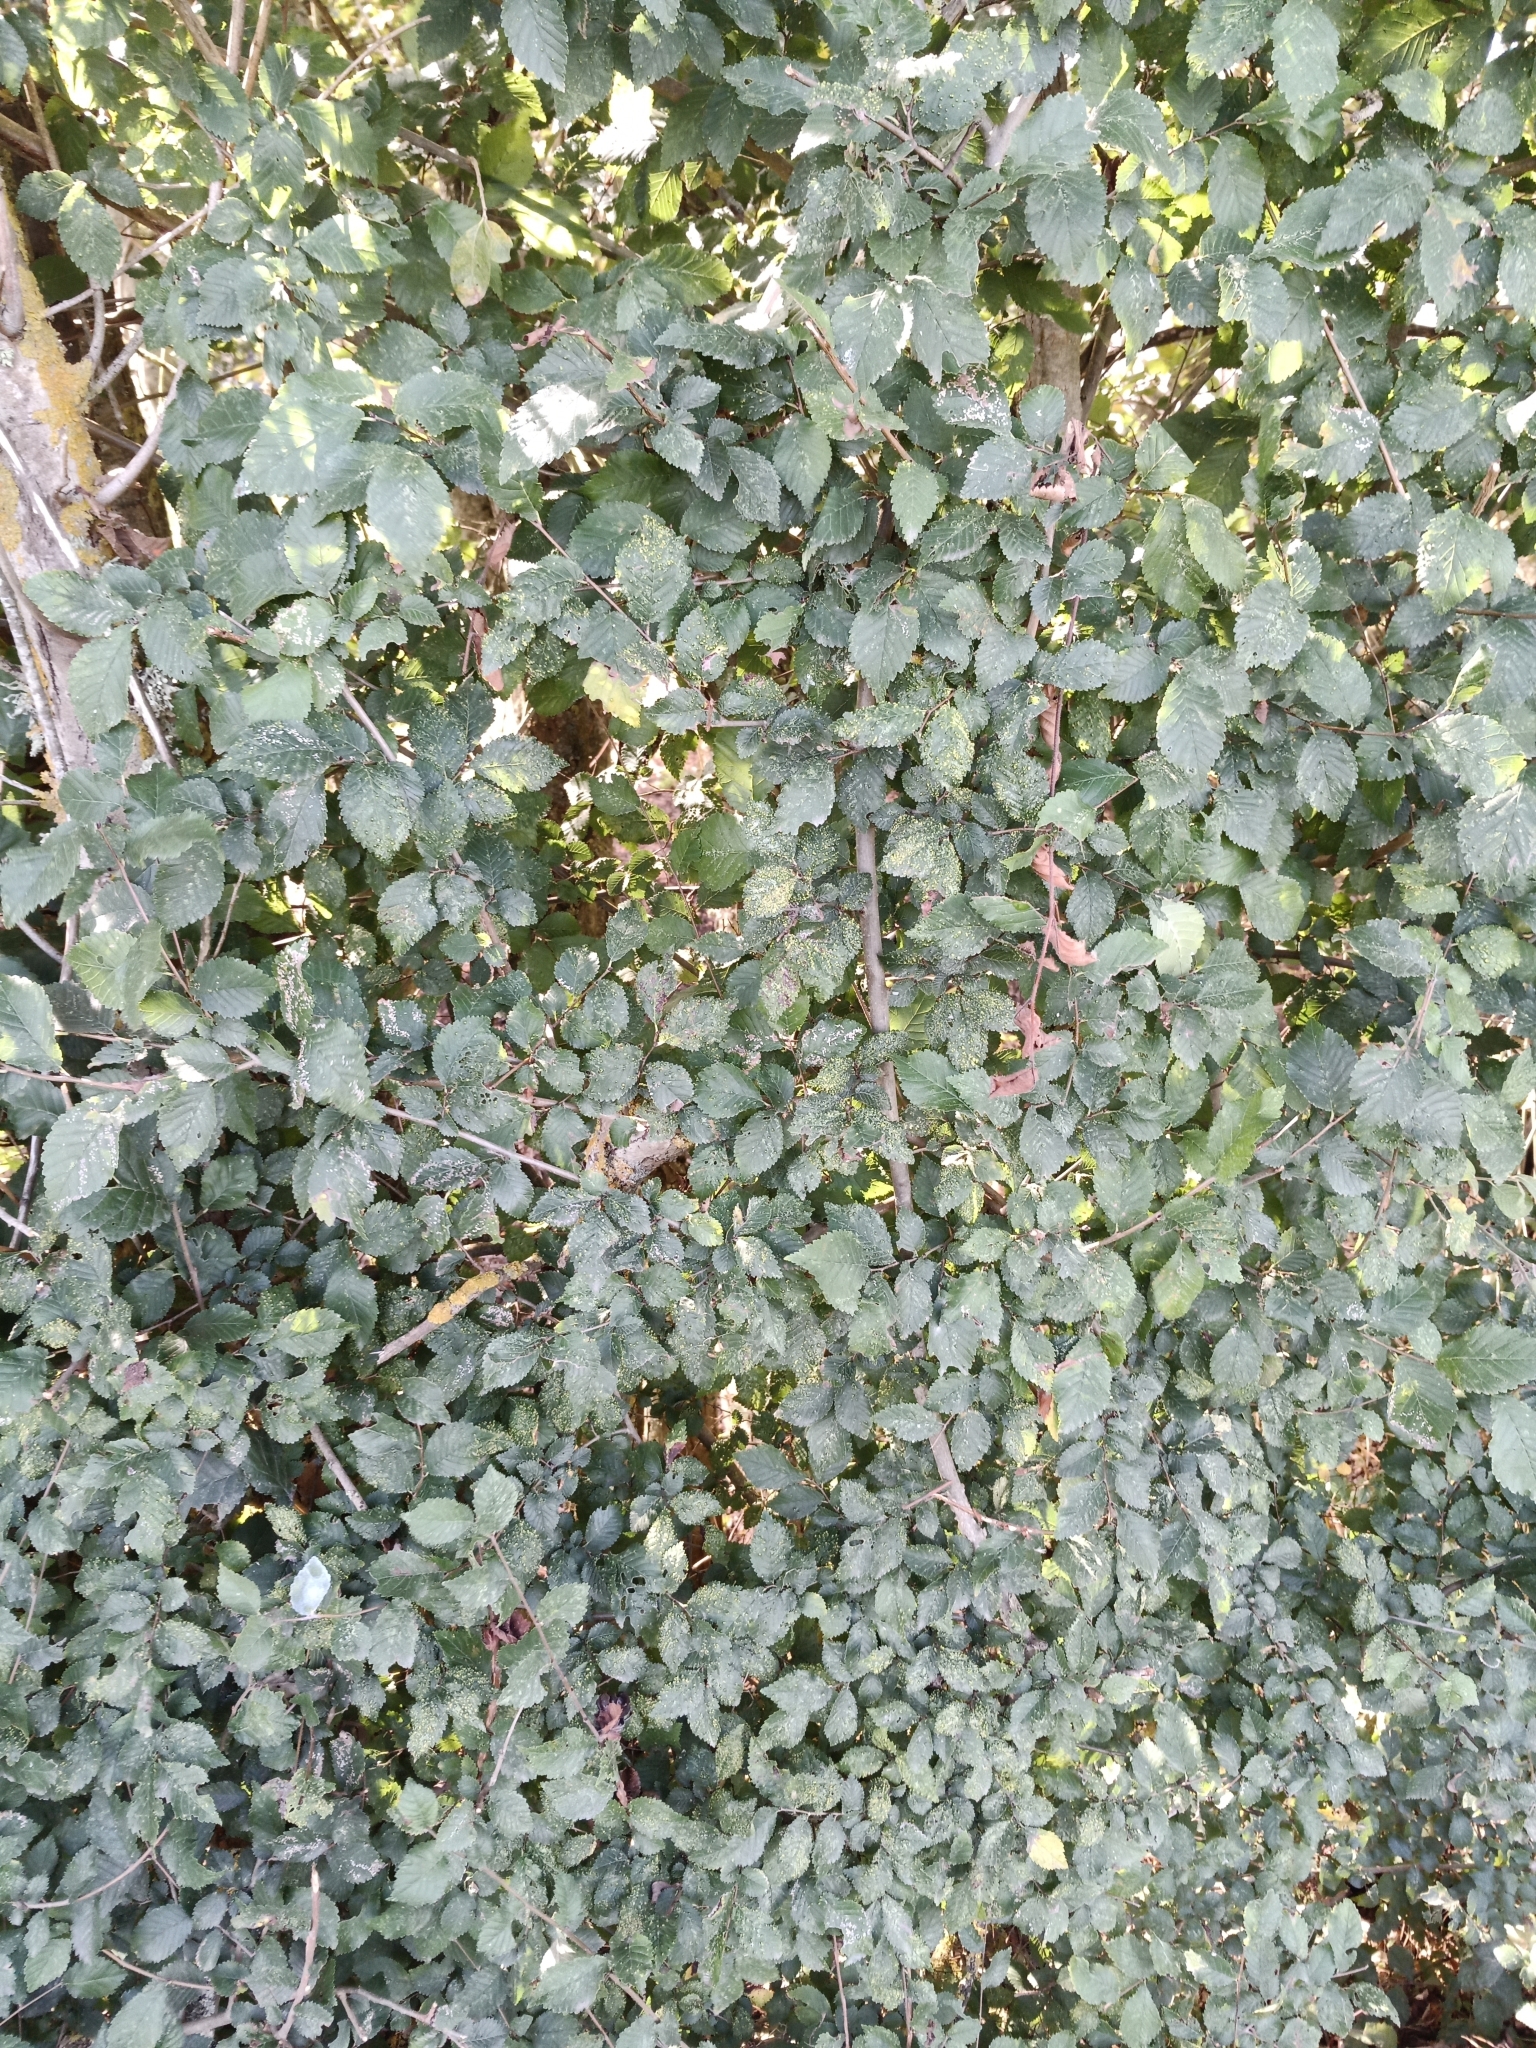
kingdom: Animalia
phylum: Arthropoda
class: Arachnida
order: Trombidiformes
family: Eriophyidae
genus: Aceria
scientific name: Aceria brevipunctata
